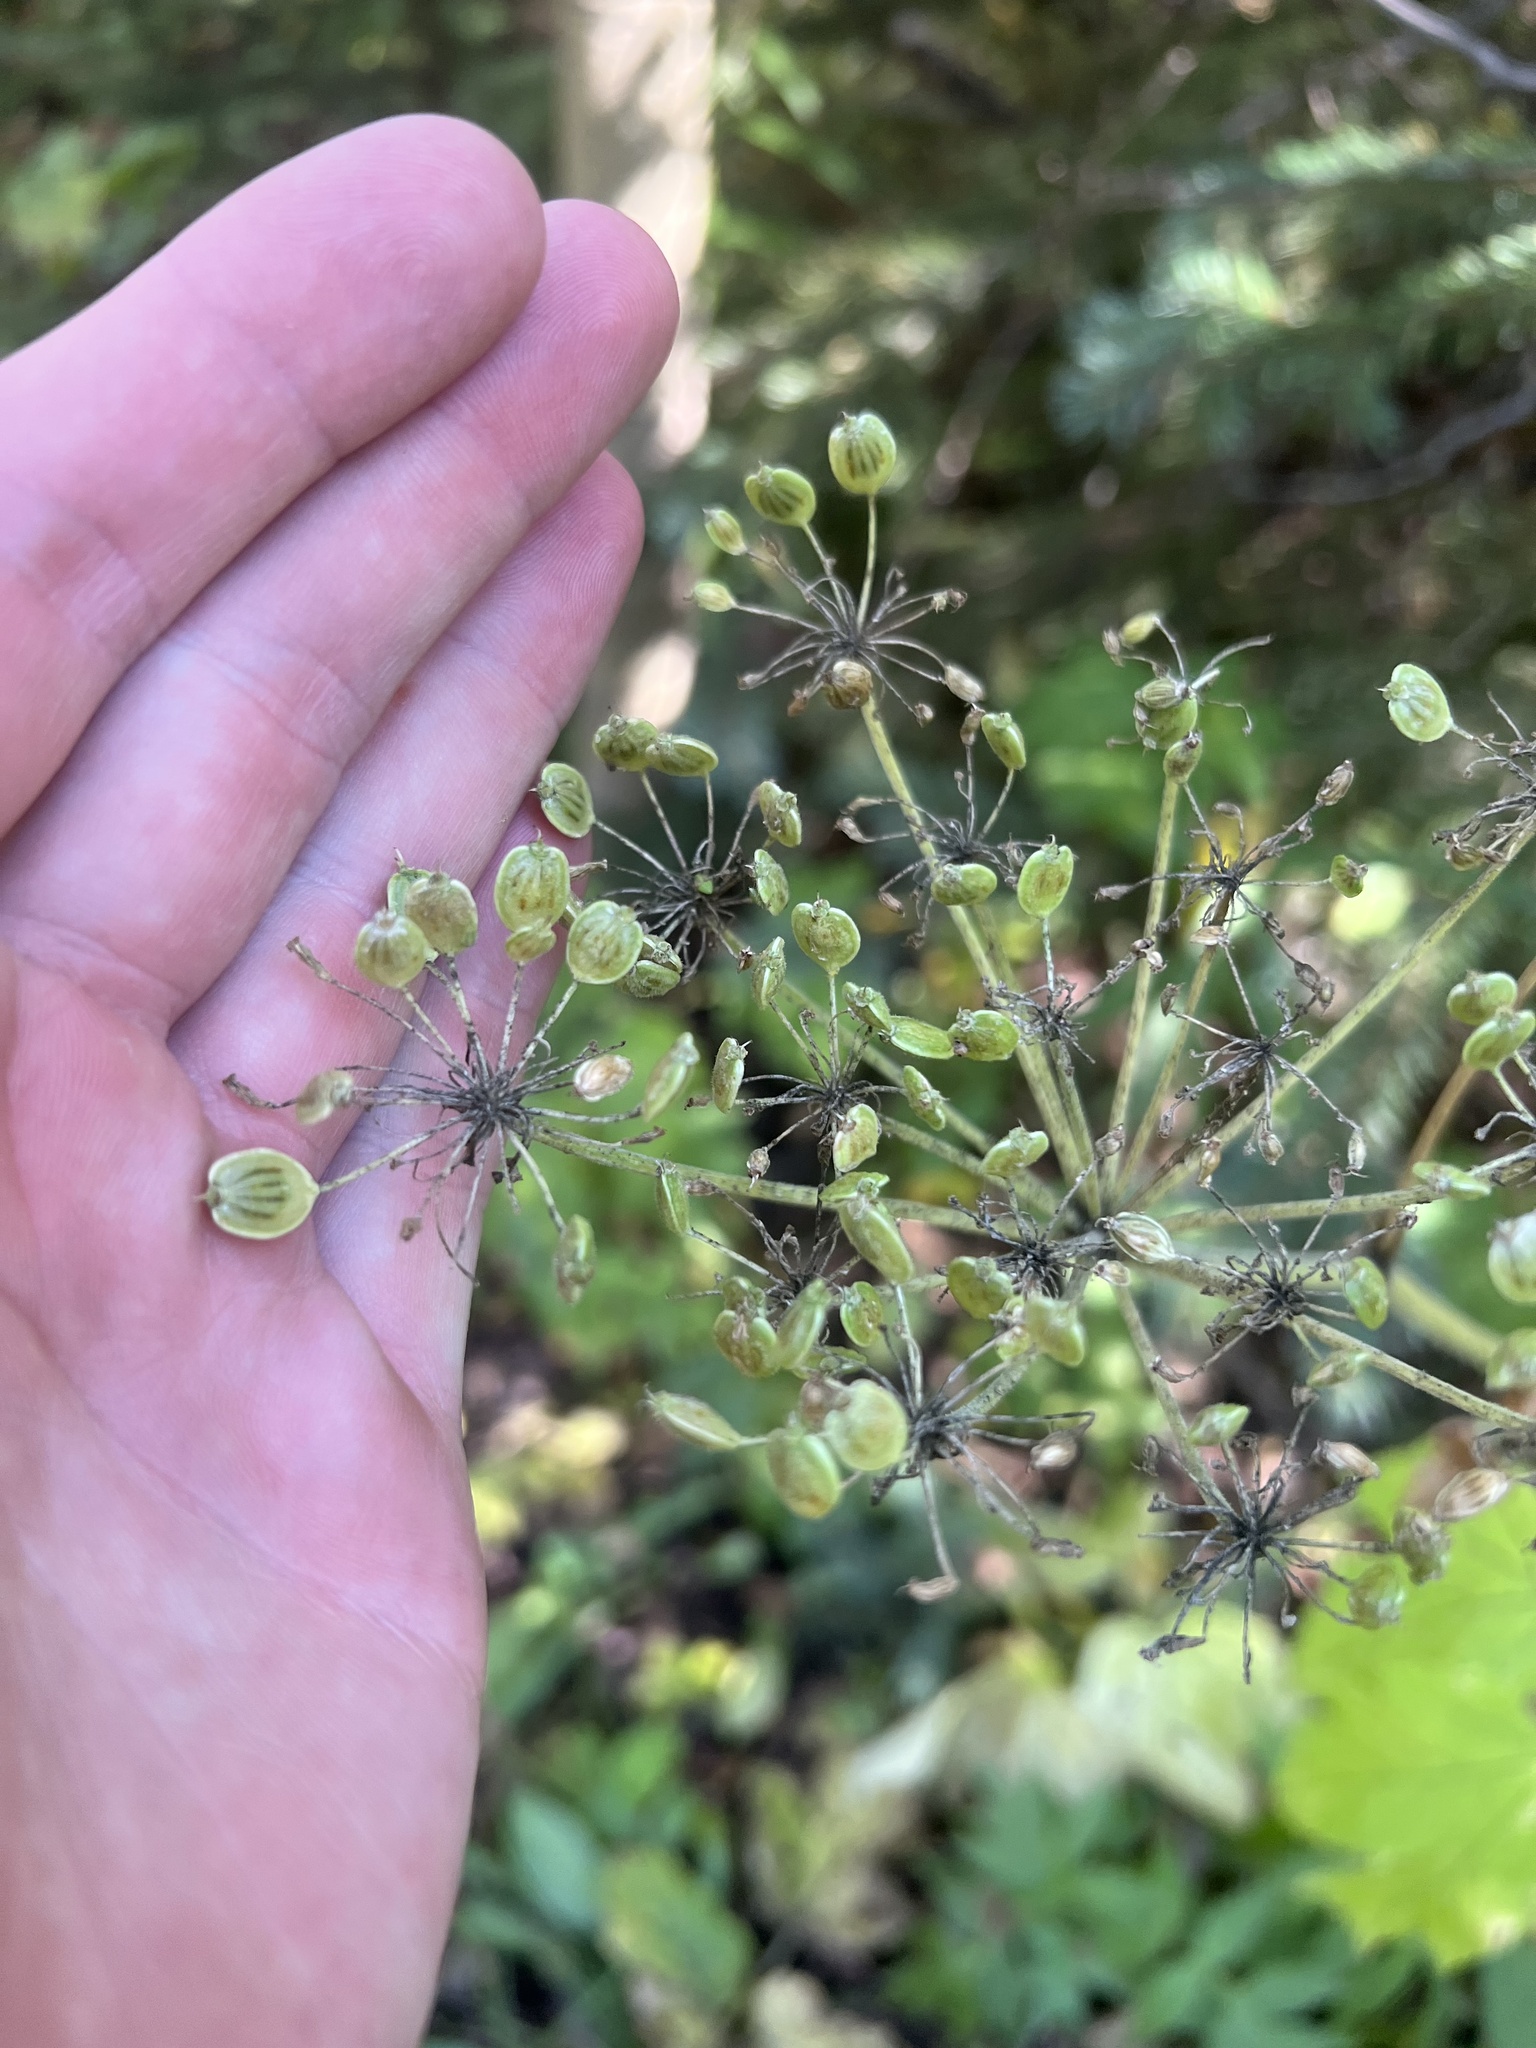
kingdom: Plantae
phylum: Tracheophyta
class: Magnoliopsida
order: Apiales
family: Apiaceae
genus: Heracleum
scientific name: Heracleum maximum
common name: American cow parsnip
